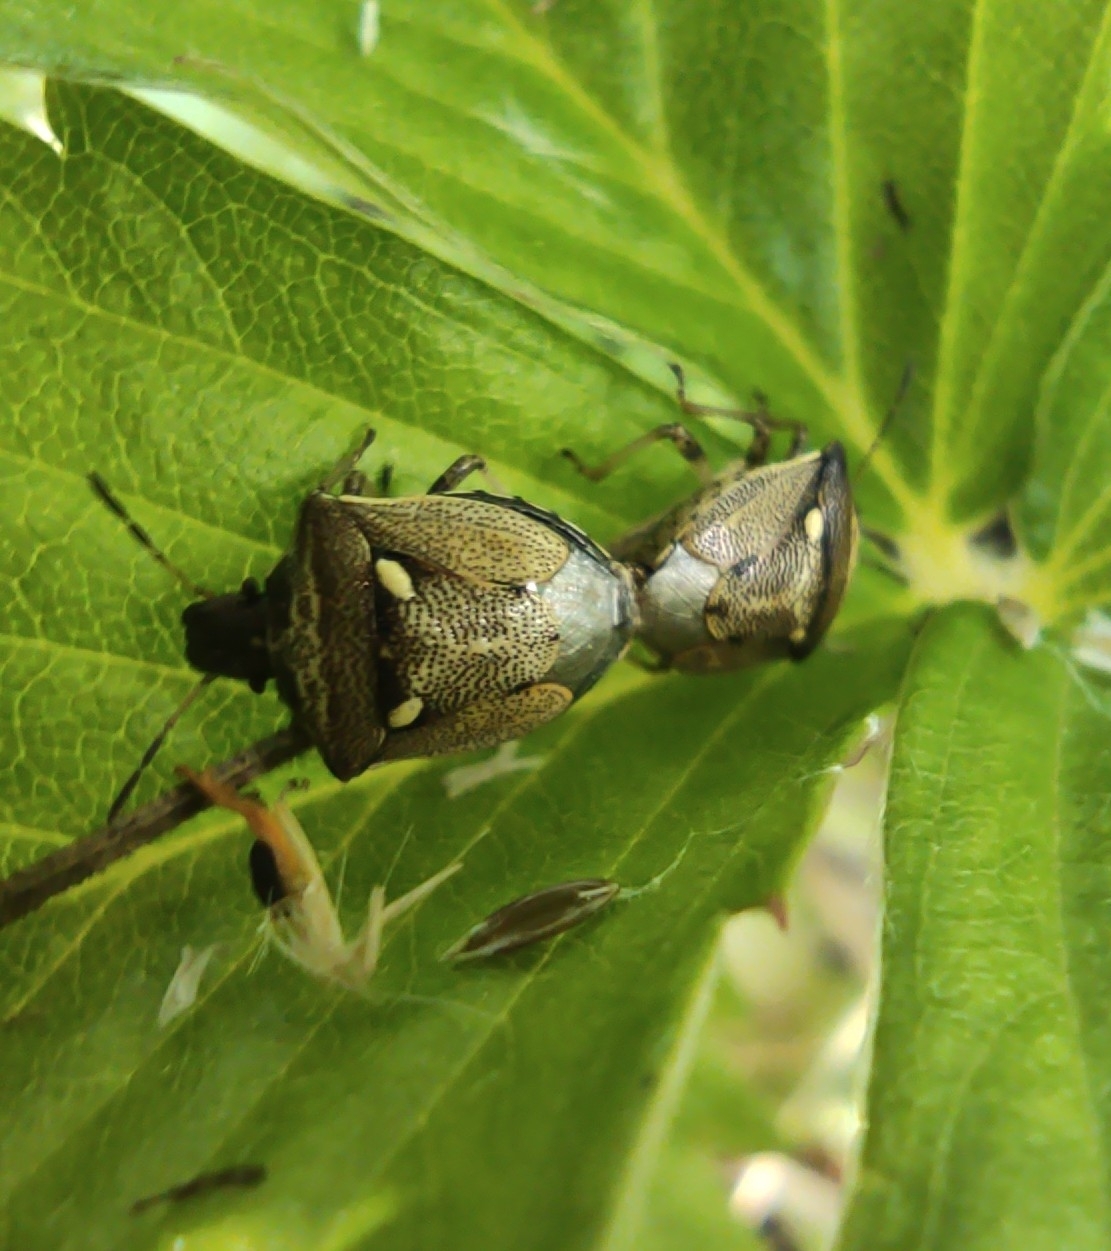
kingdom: Animalia
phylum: Arthropoda
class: Insecta
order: Hemiptera
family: Pentatomidae
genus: Eysarcoris
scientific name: Eysarcoris aeneus
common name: New forest shieldbug
